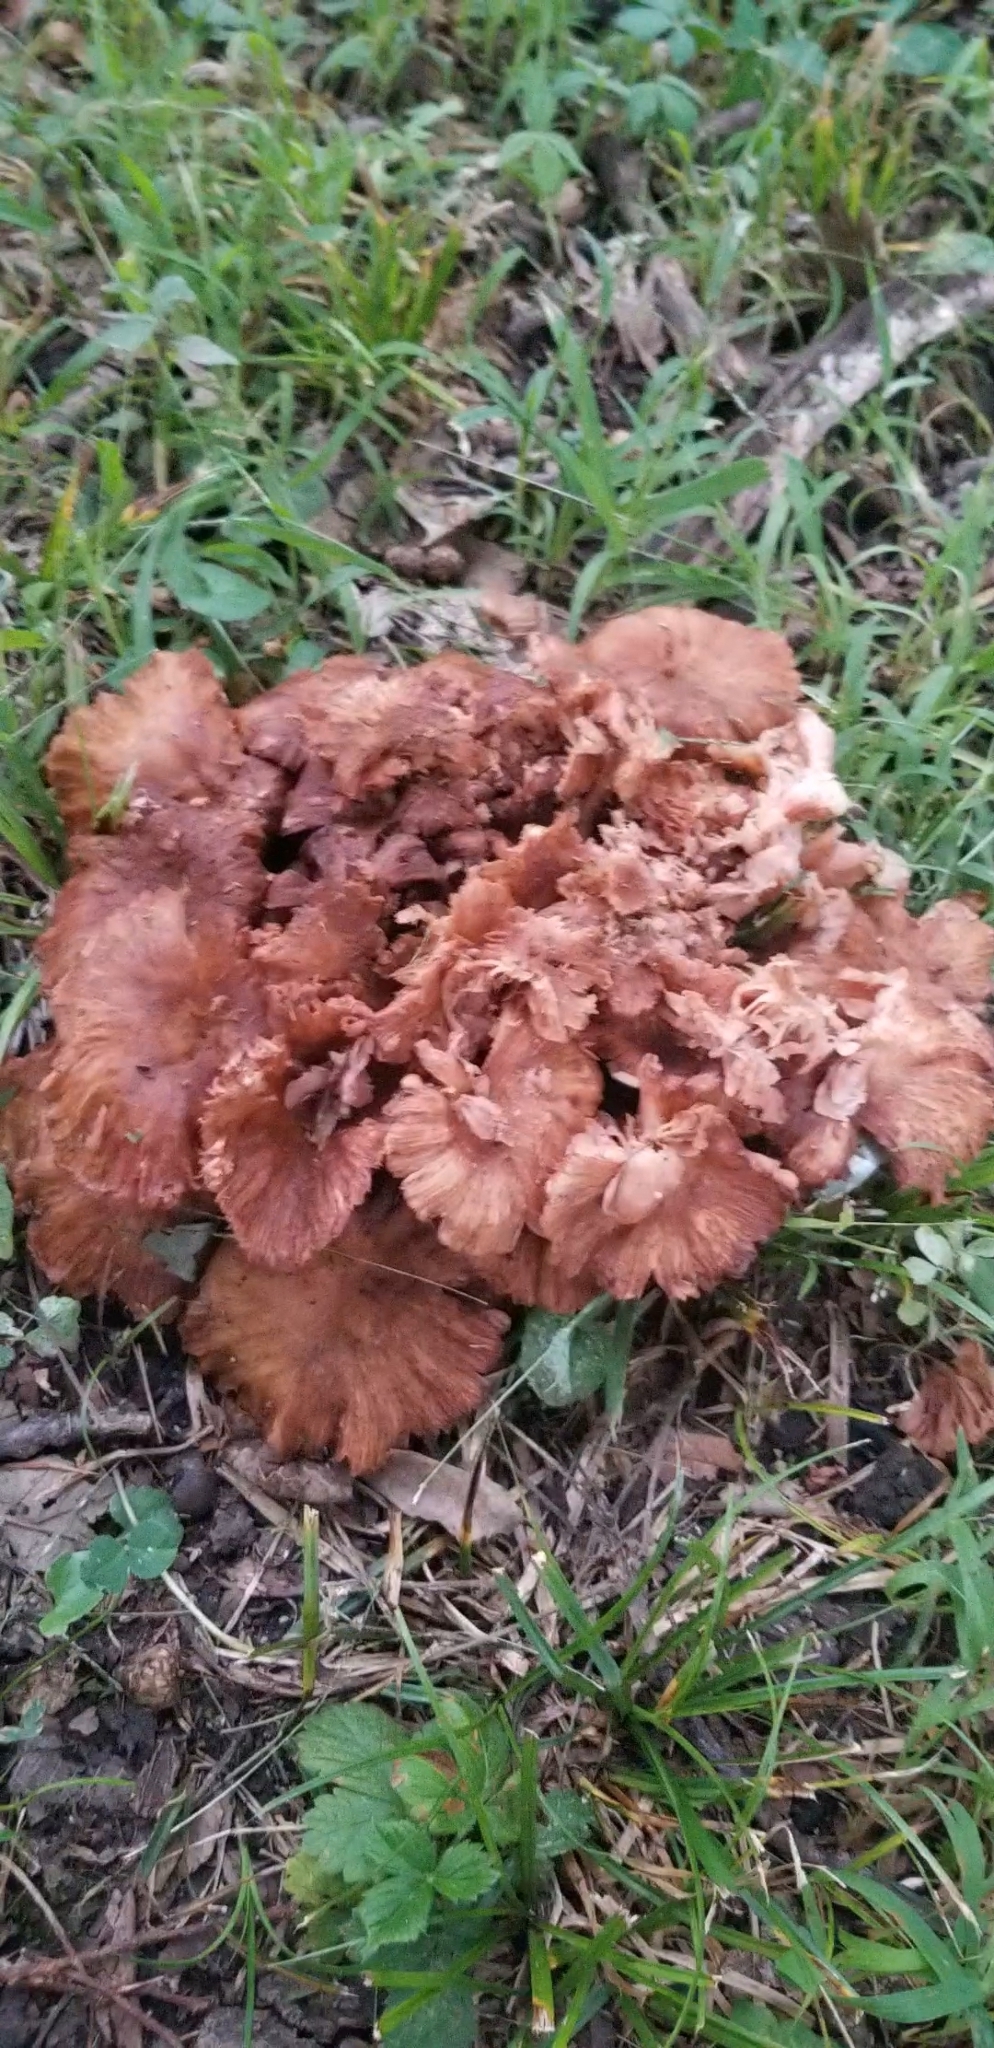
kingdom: Fungi
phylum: Basidiomycota
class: Agaricomycetes
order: Agaricales
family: Physalacriaceae
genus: Desarmillaria
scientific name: Desarmillaria caespitosa
